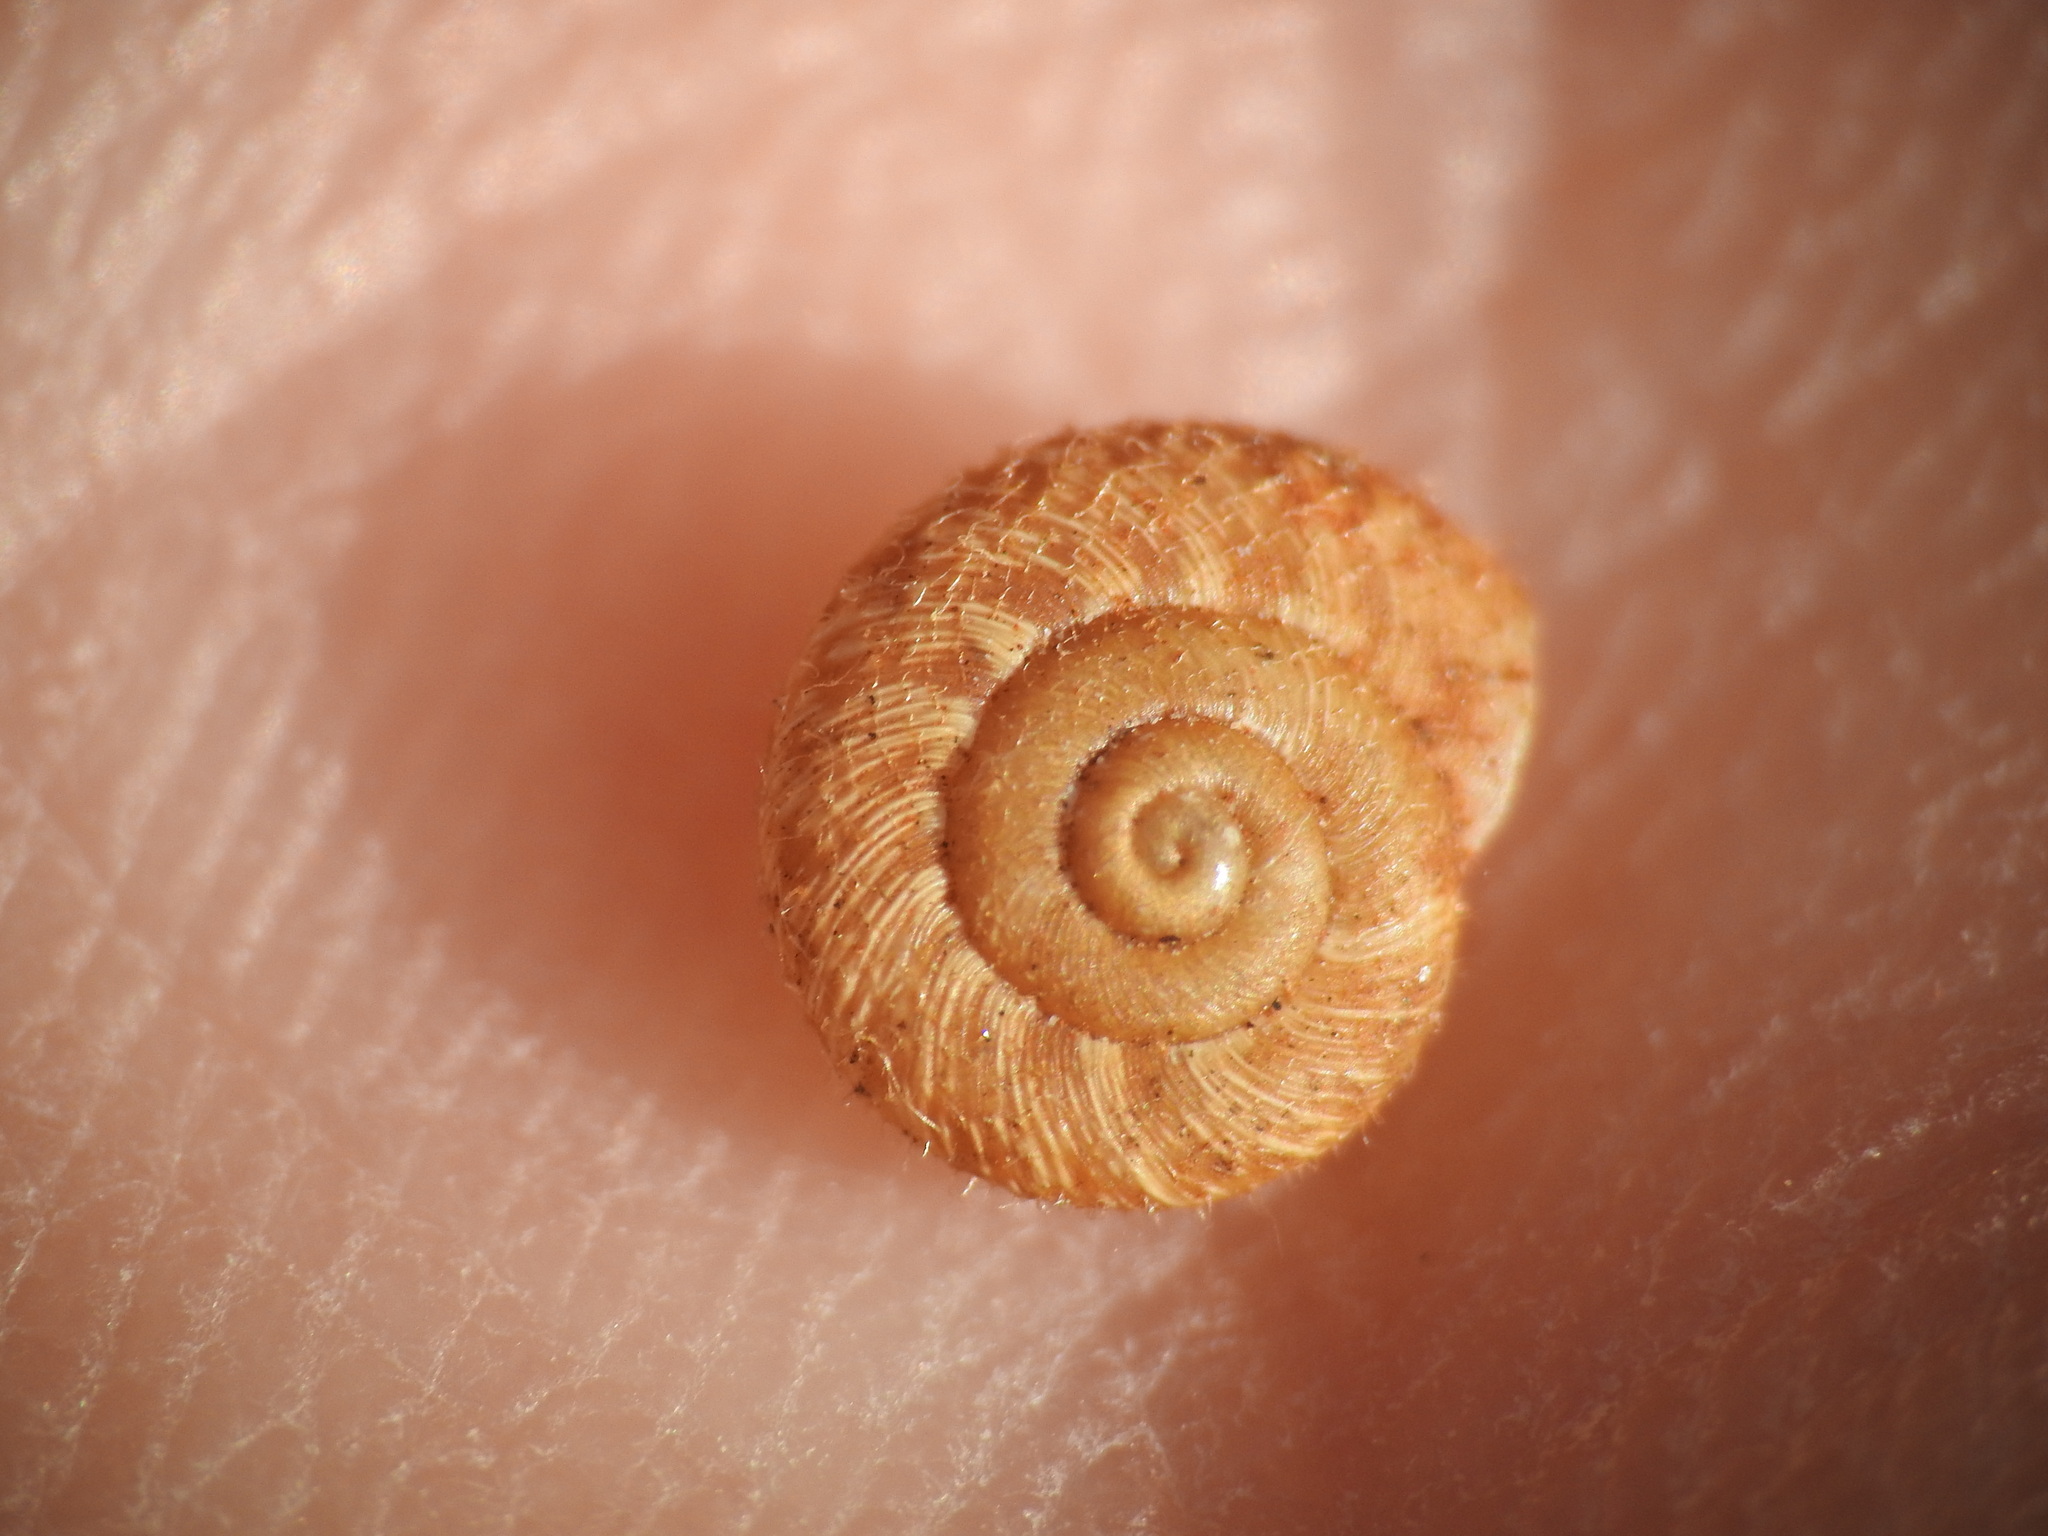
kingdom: Animalia
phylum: Mollusca
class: Gastropoda
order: Stylommatophora
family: Geomitridae
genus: Xerotricha
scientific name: Xerotricha conspurcata
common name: Snail
